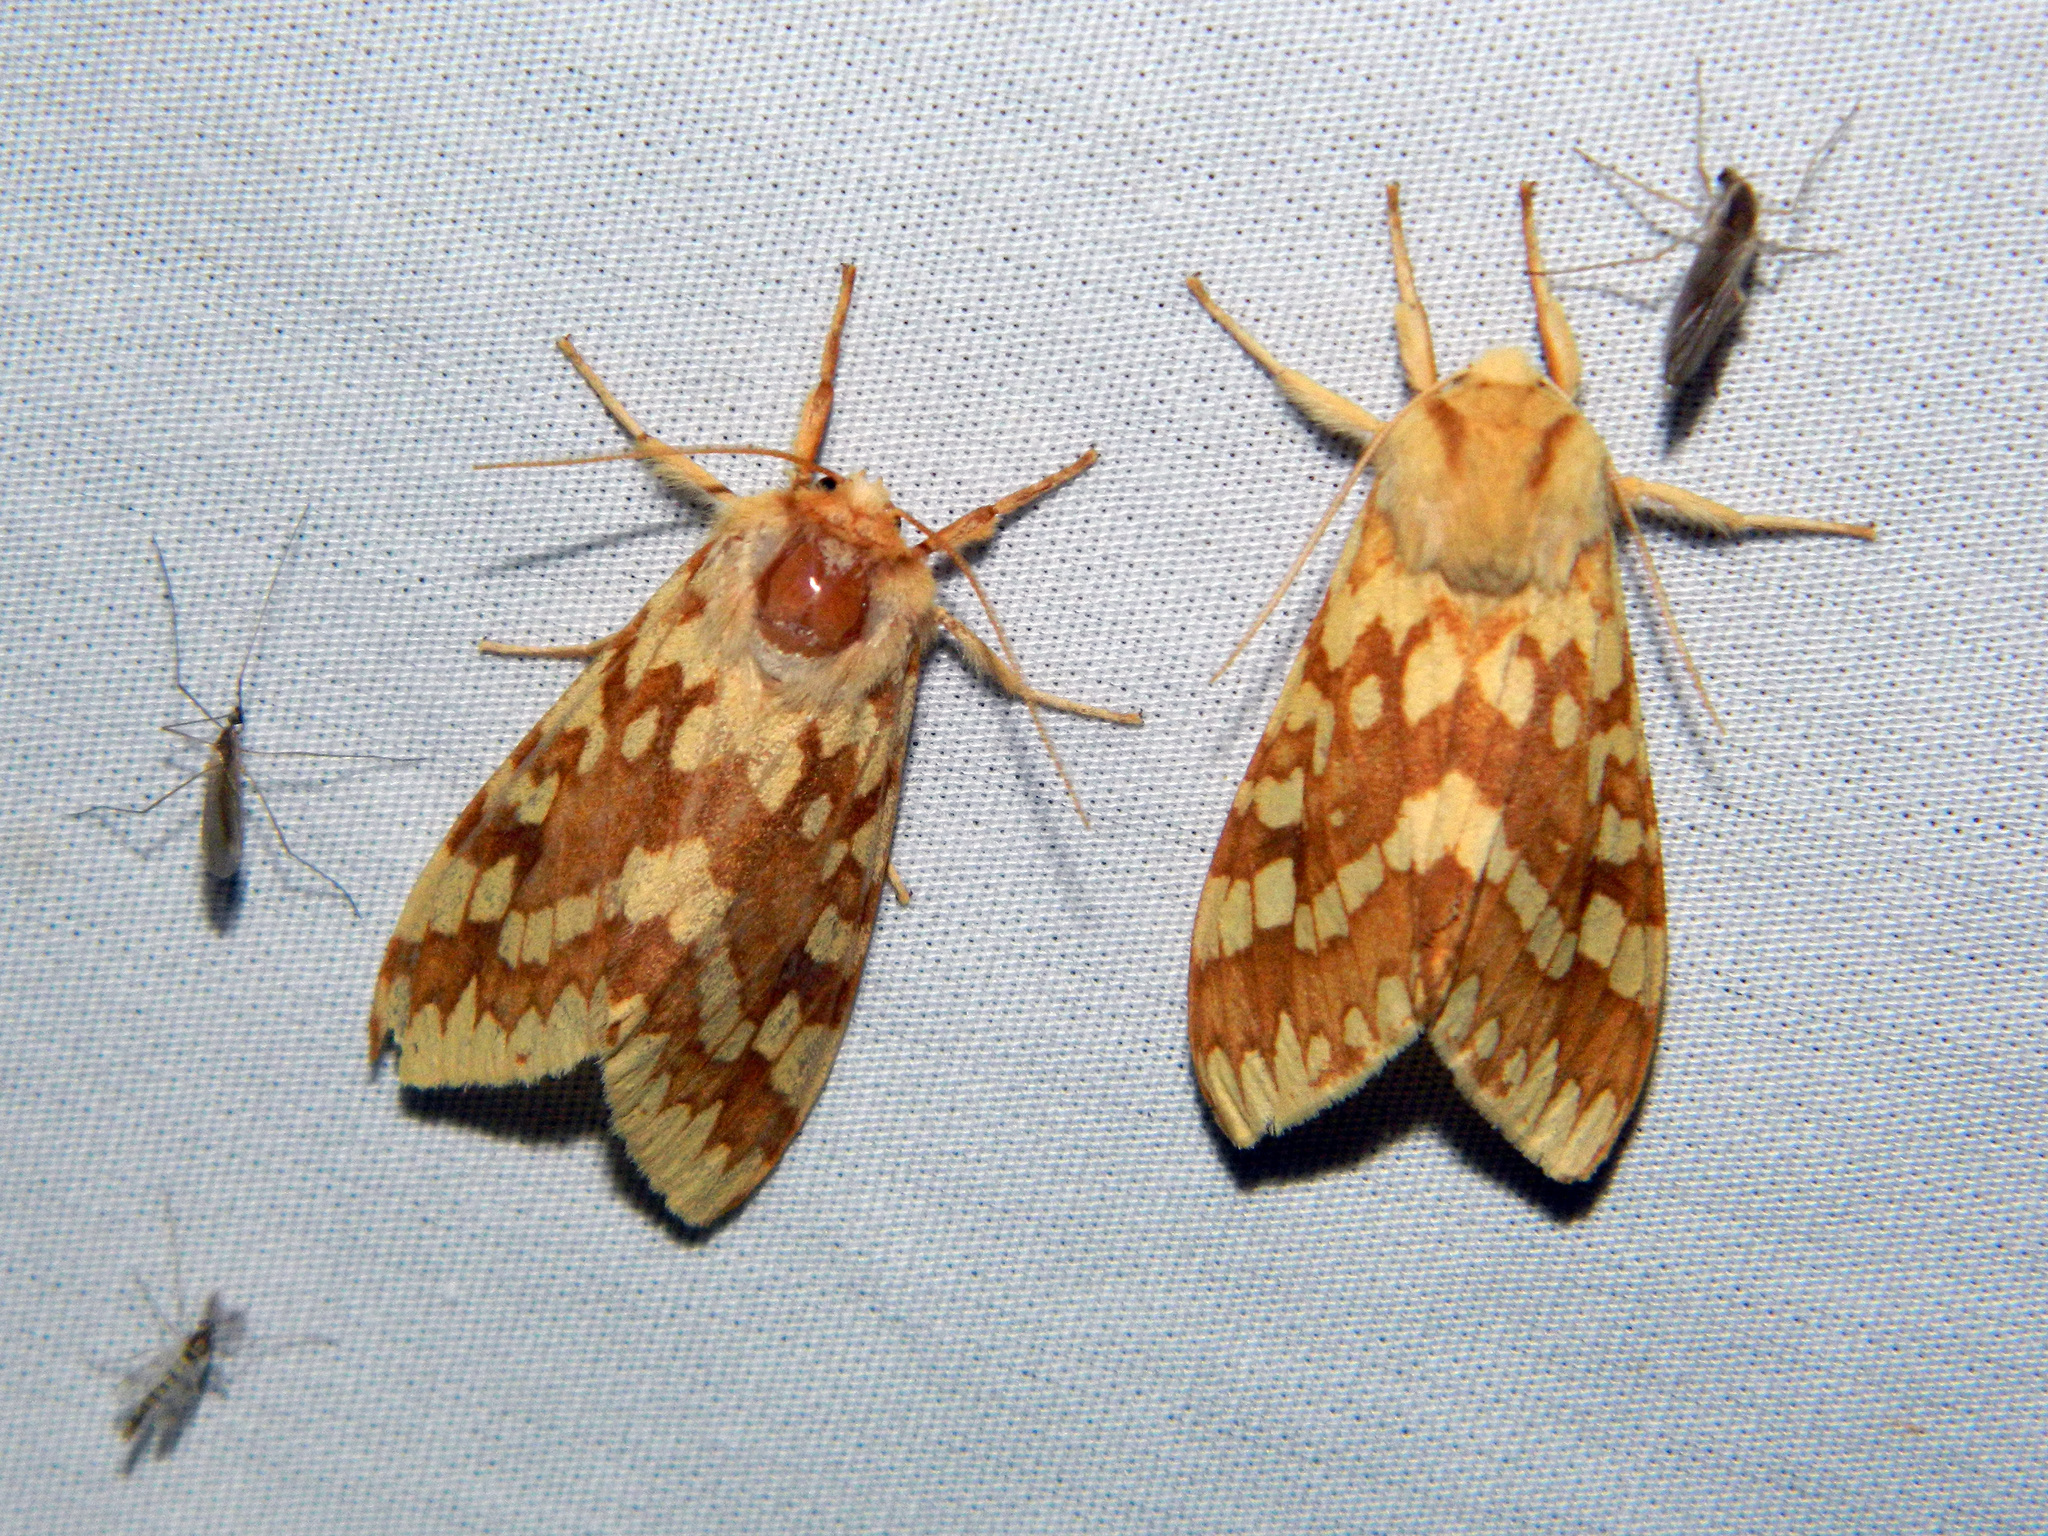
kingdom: Animalia
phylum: Arthropoda
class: Insecta
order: Lepidoptera
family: Erebidae
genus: Lophocampa
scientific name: Lophocampa maculata
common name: Spotted tussock moth
